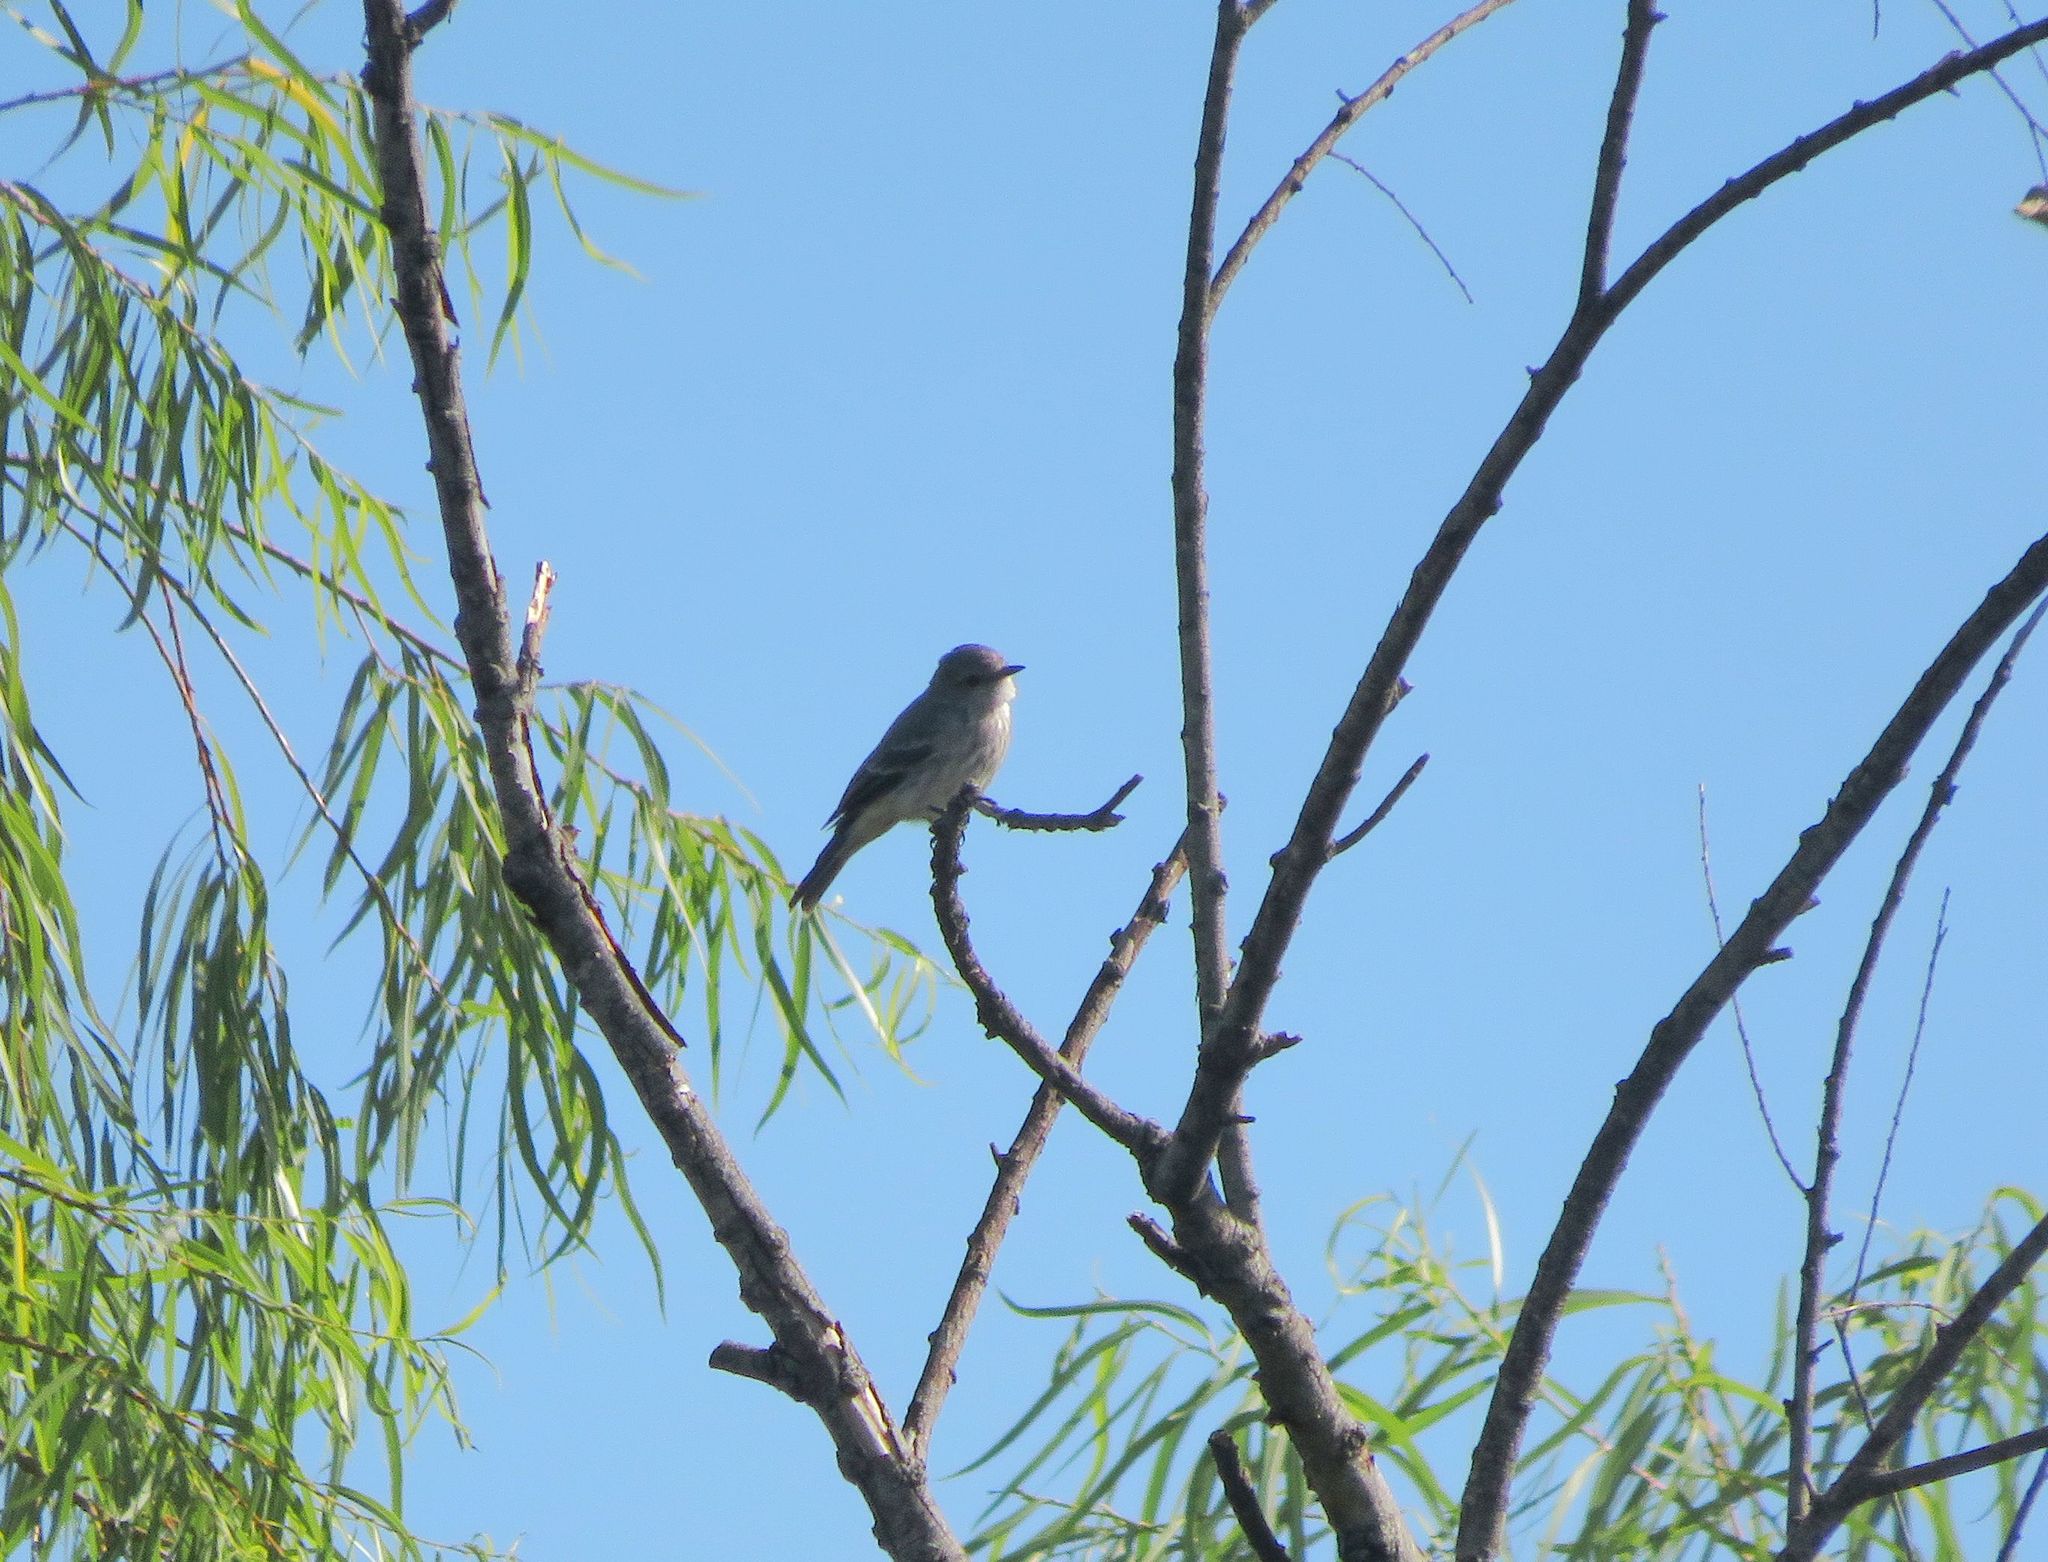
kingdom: Animalia
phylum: Chordata
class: Aves
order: Passeriformes
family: Tyrannidae
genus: Pyrocephalus
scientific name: Pyrocephalus rubinus
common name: Vermilion flycatcher
